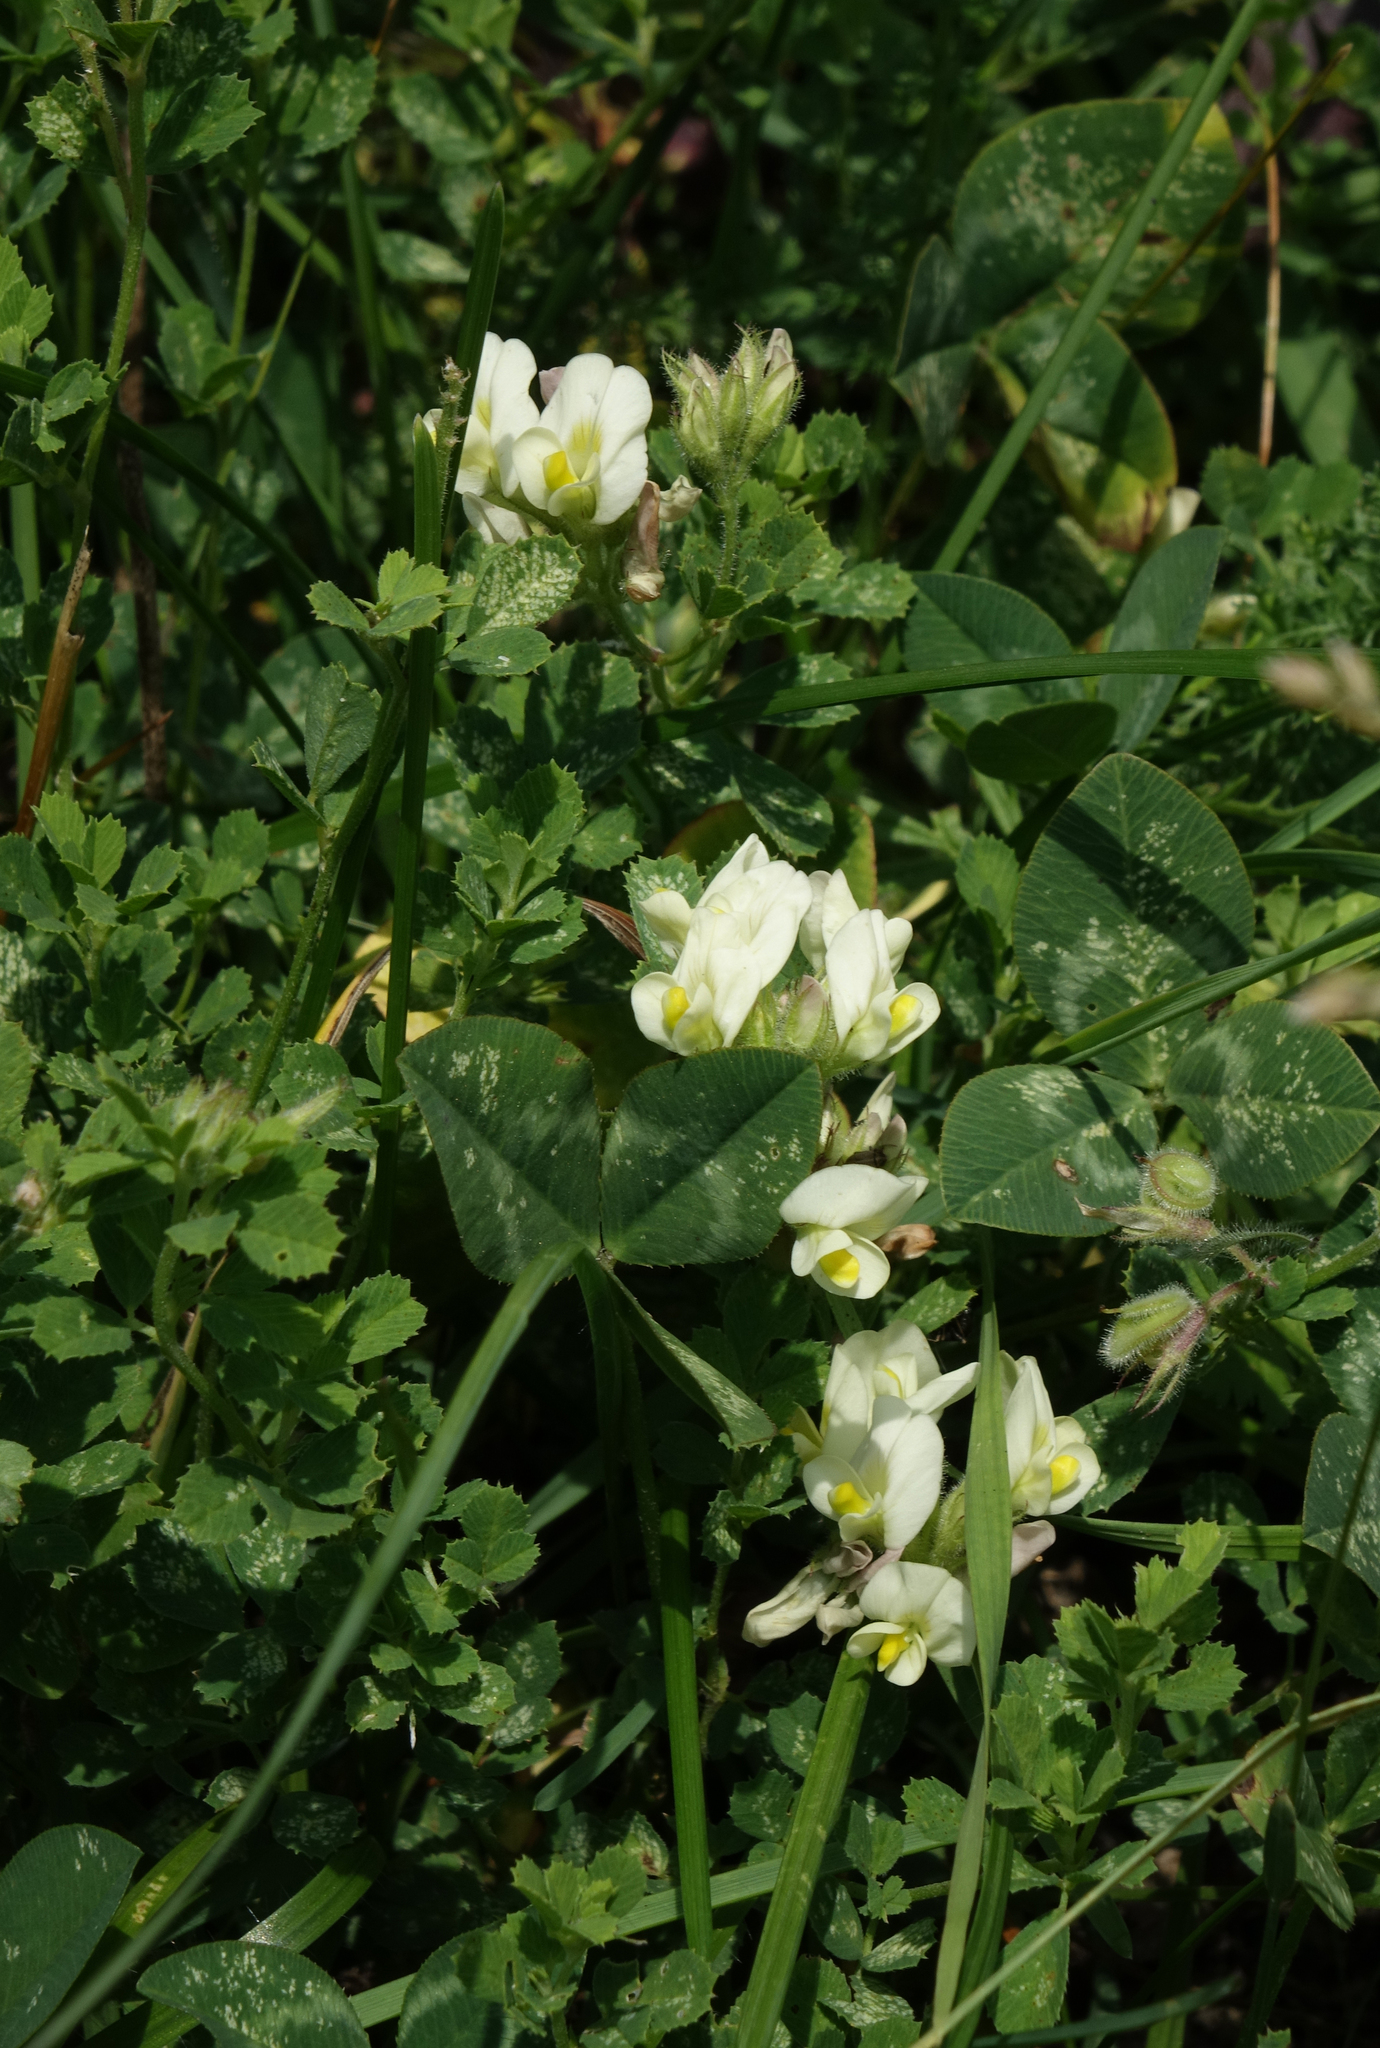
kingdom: Plantae
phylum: Tracheophyta
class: Magnoliopsida
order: Fabales
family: Fabaceae
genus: Medicago
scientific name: Medicago
